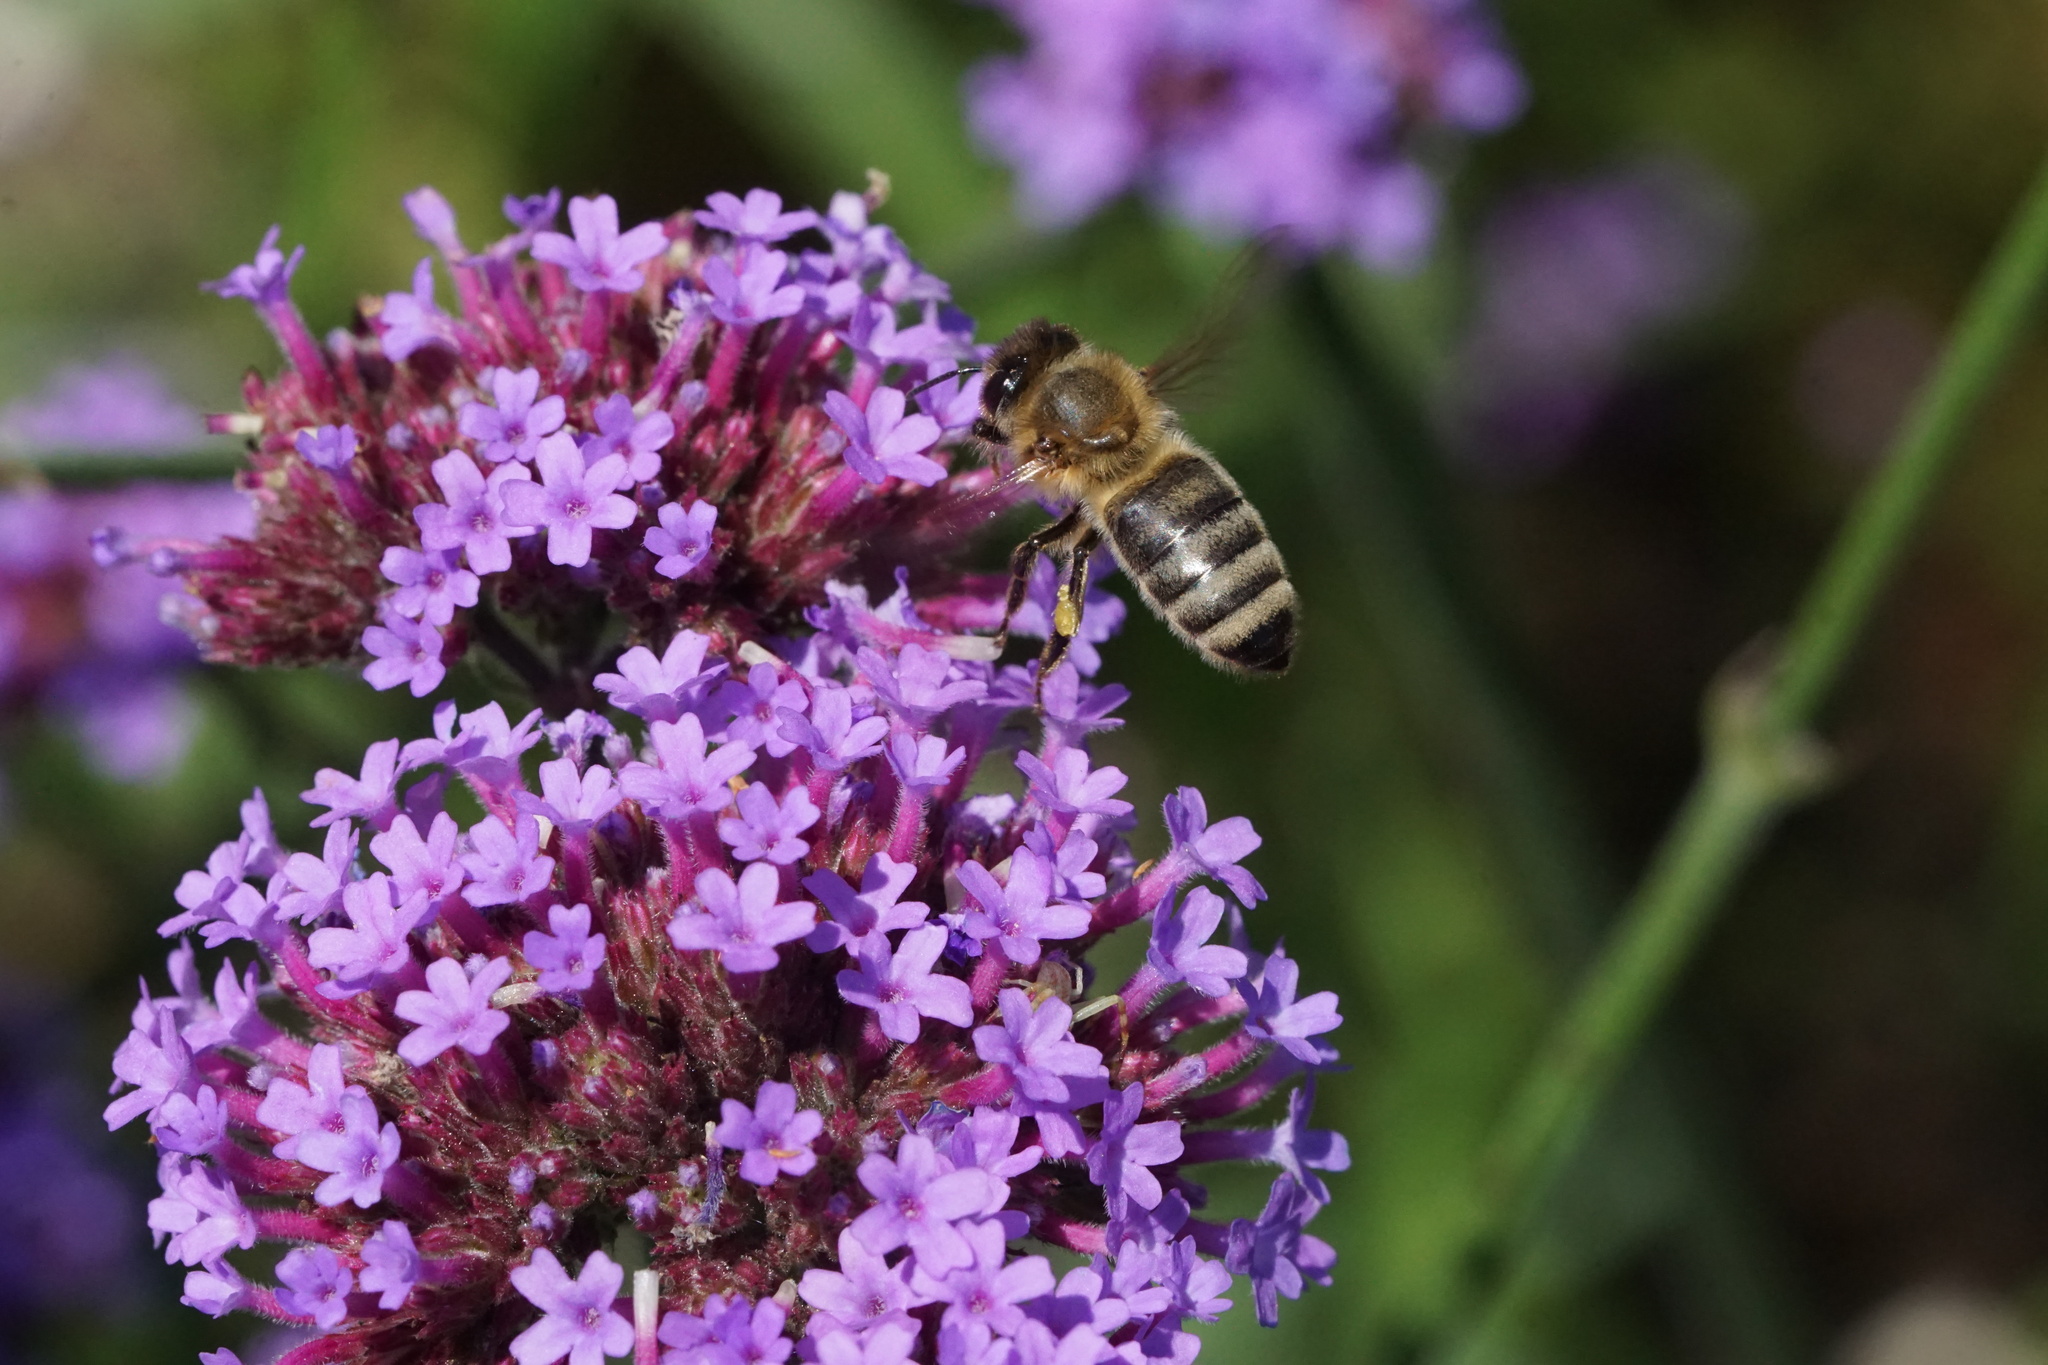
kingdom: Animalia
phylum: Arthropoda
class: Insecta
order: Hymenoptera
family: Apidae
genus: Apis
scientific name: Apis mellifera
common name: Honey bee
